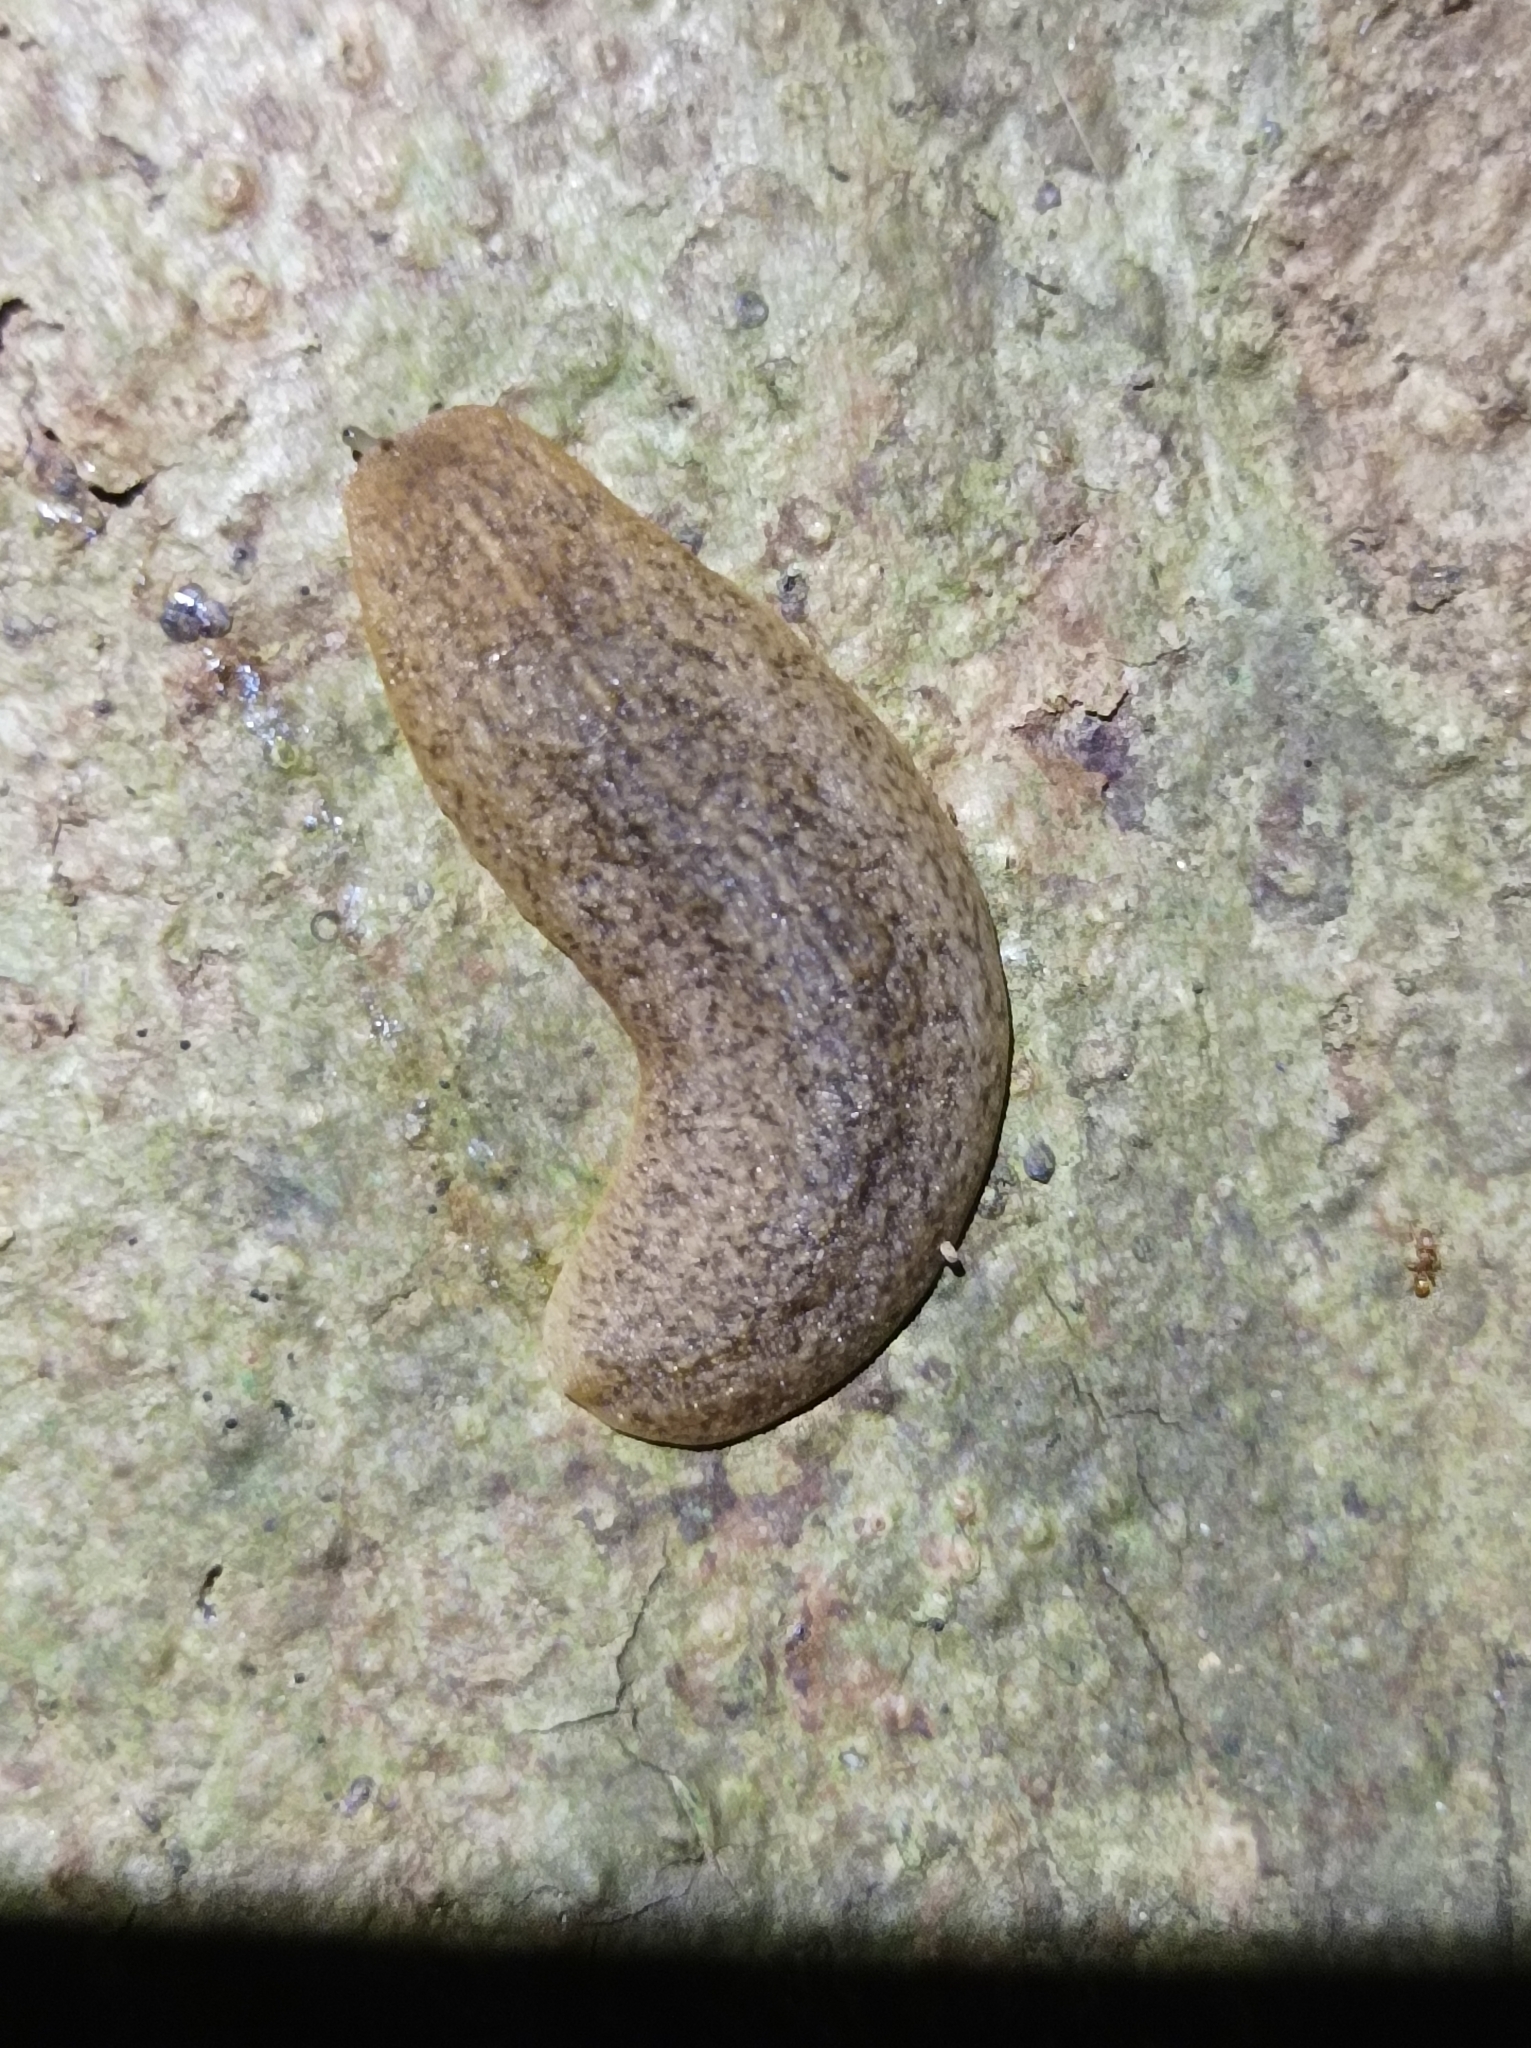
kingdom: Animalia
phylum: Mollusca
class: Gastropoda
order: Systellommatophora
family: Veronicellidae
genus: Semperula
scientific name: Semperula wallacei
